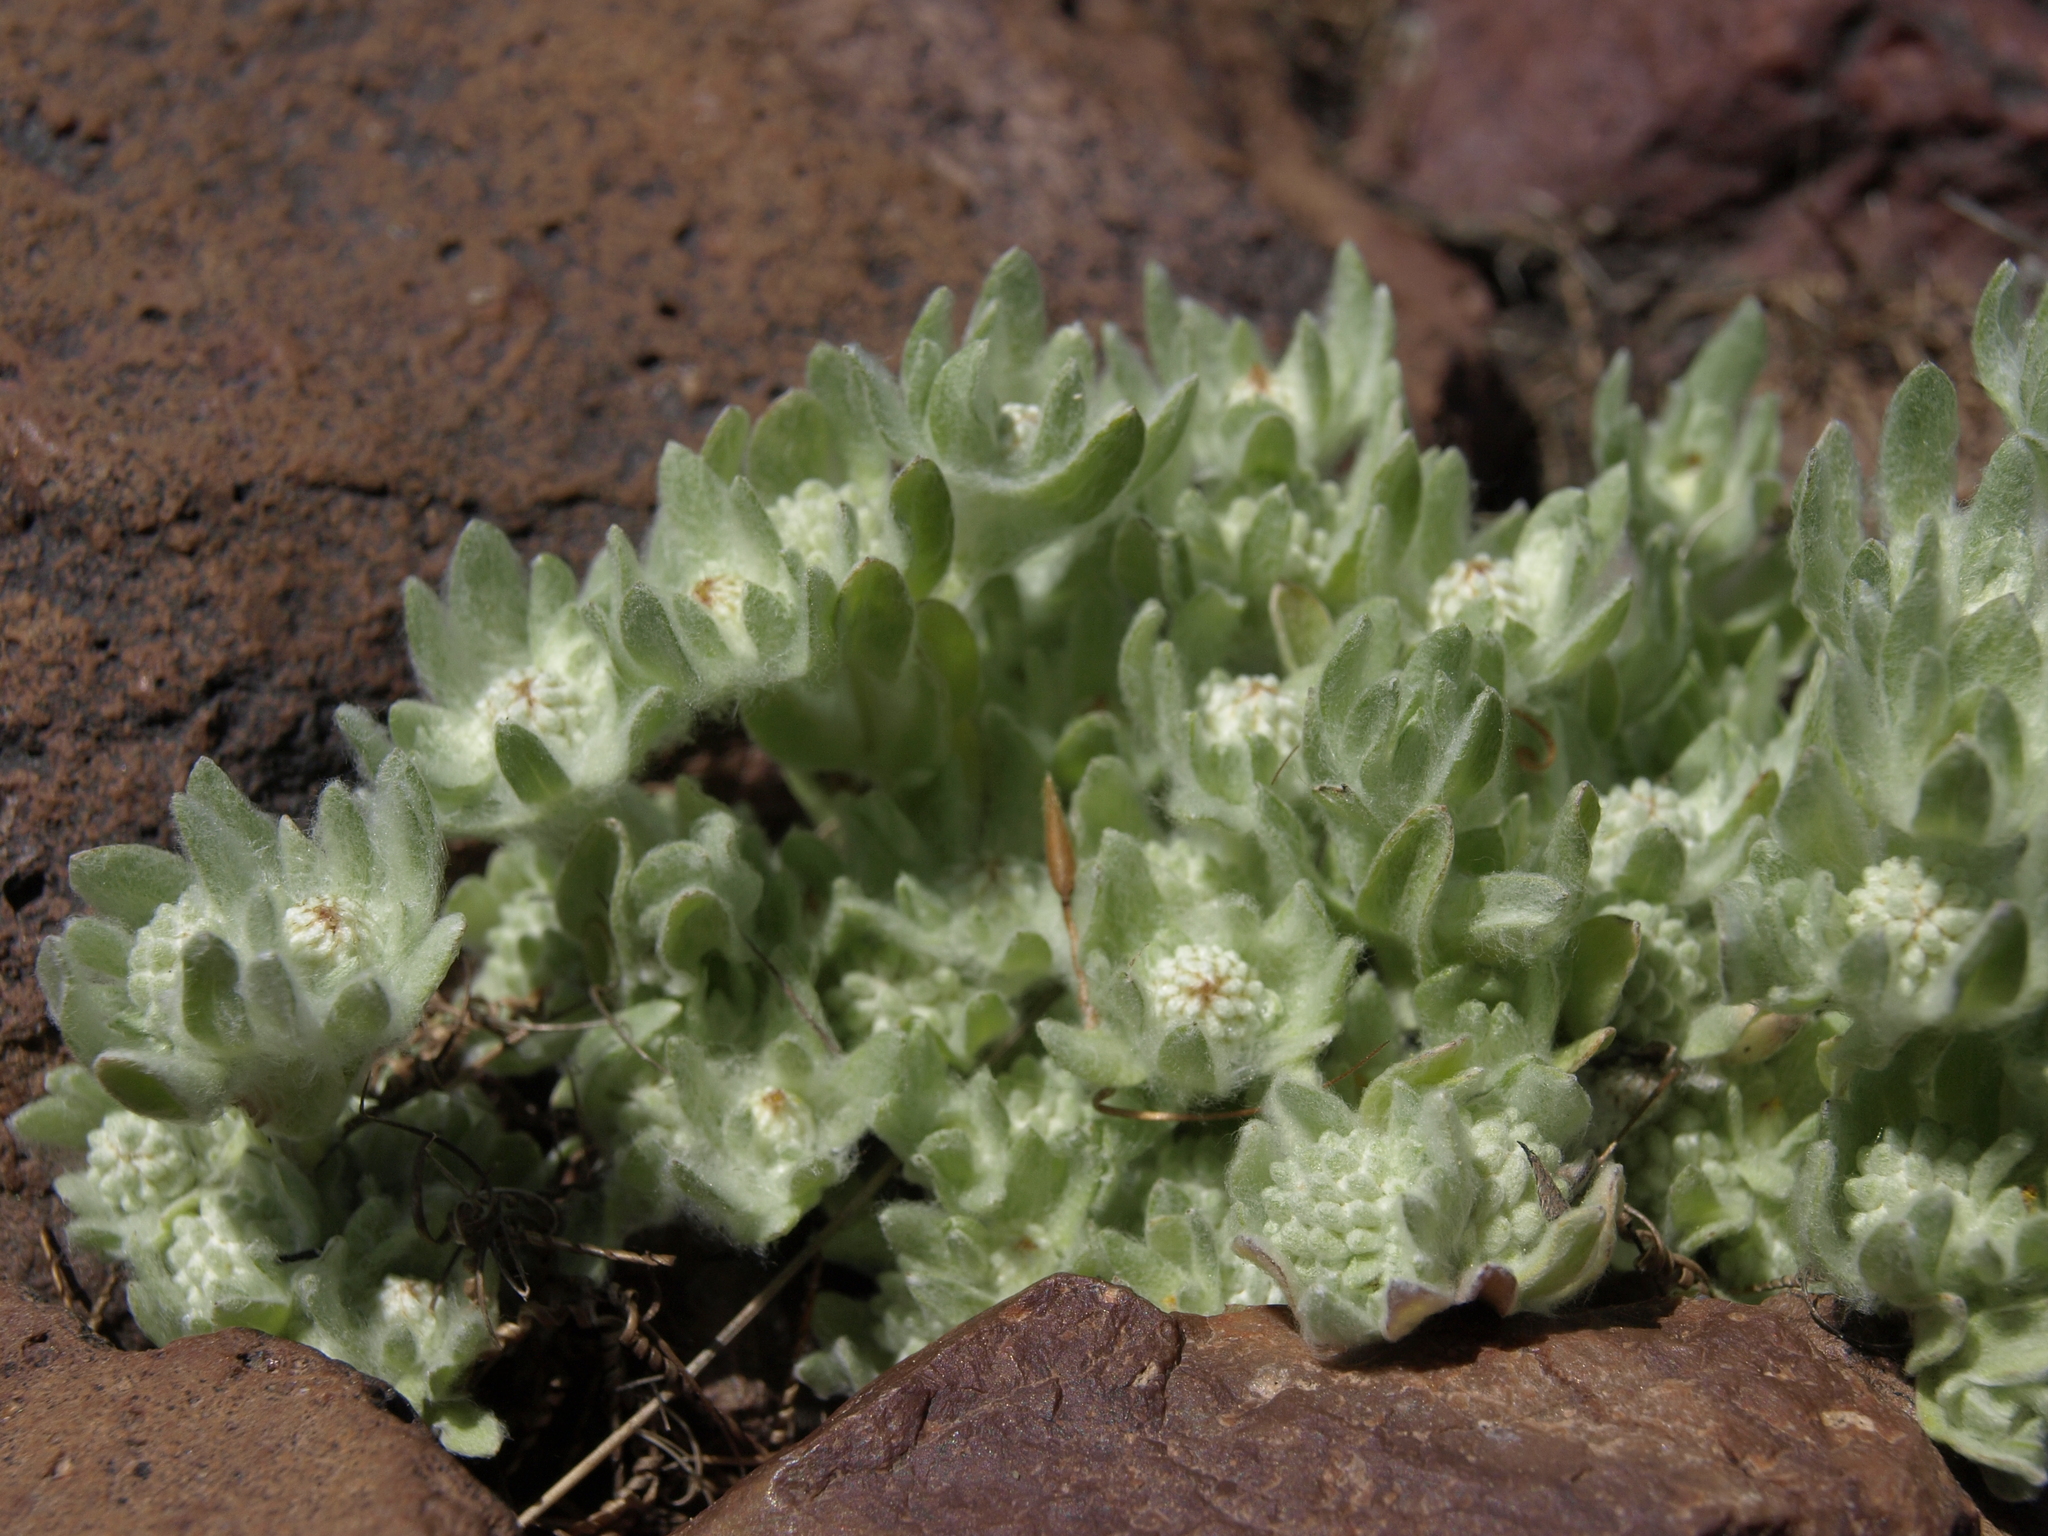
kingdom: Plantae
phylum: Tracheophyta
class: Magnoliopsida
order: Asterales
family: Asteraceae
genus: Psilocarphus
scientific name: Psilocarphus brevissimus
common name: Dwarf woollyheads
